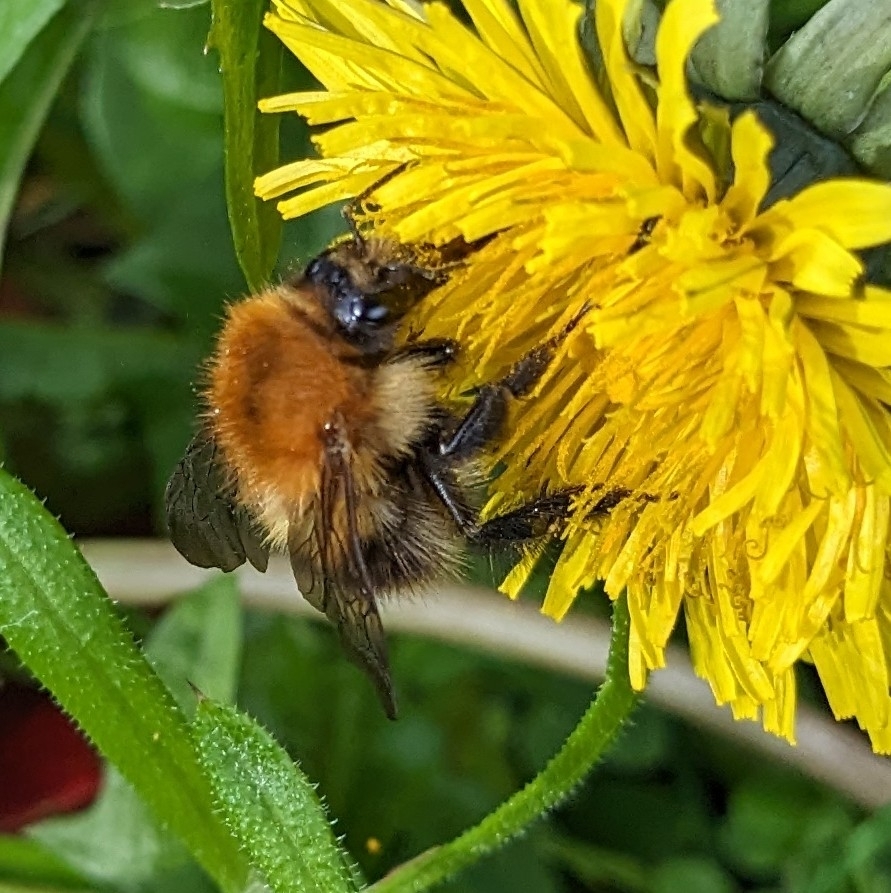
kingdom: Animalia
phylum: Arthropoda
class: Insecta
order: Hymenoptera
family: Apidae
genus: Bombus
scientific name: Bombus pascuorum
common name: Common carder bee
